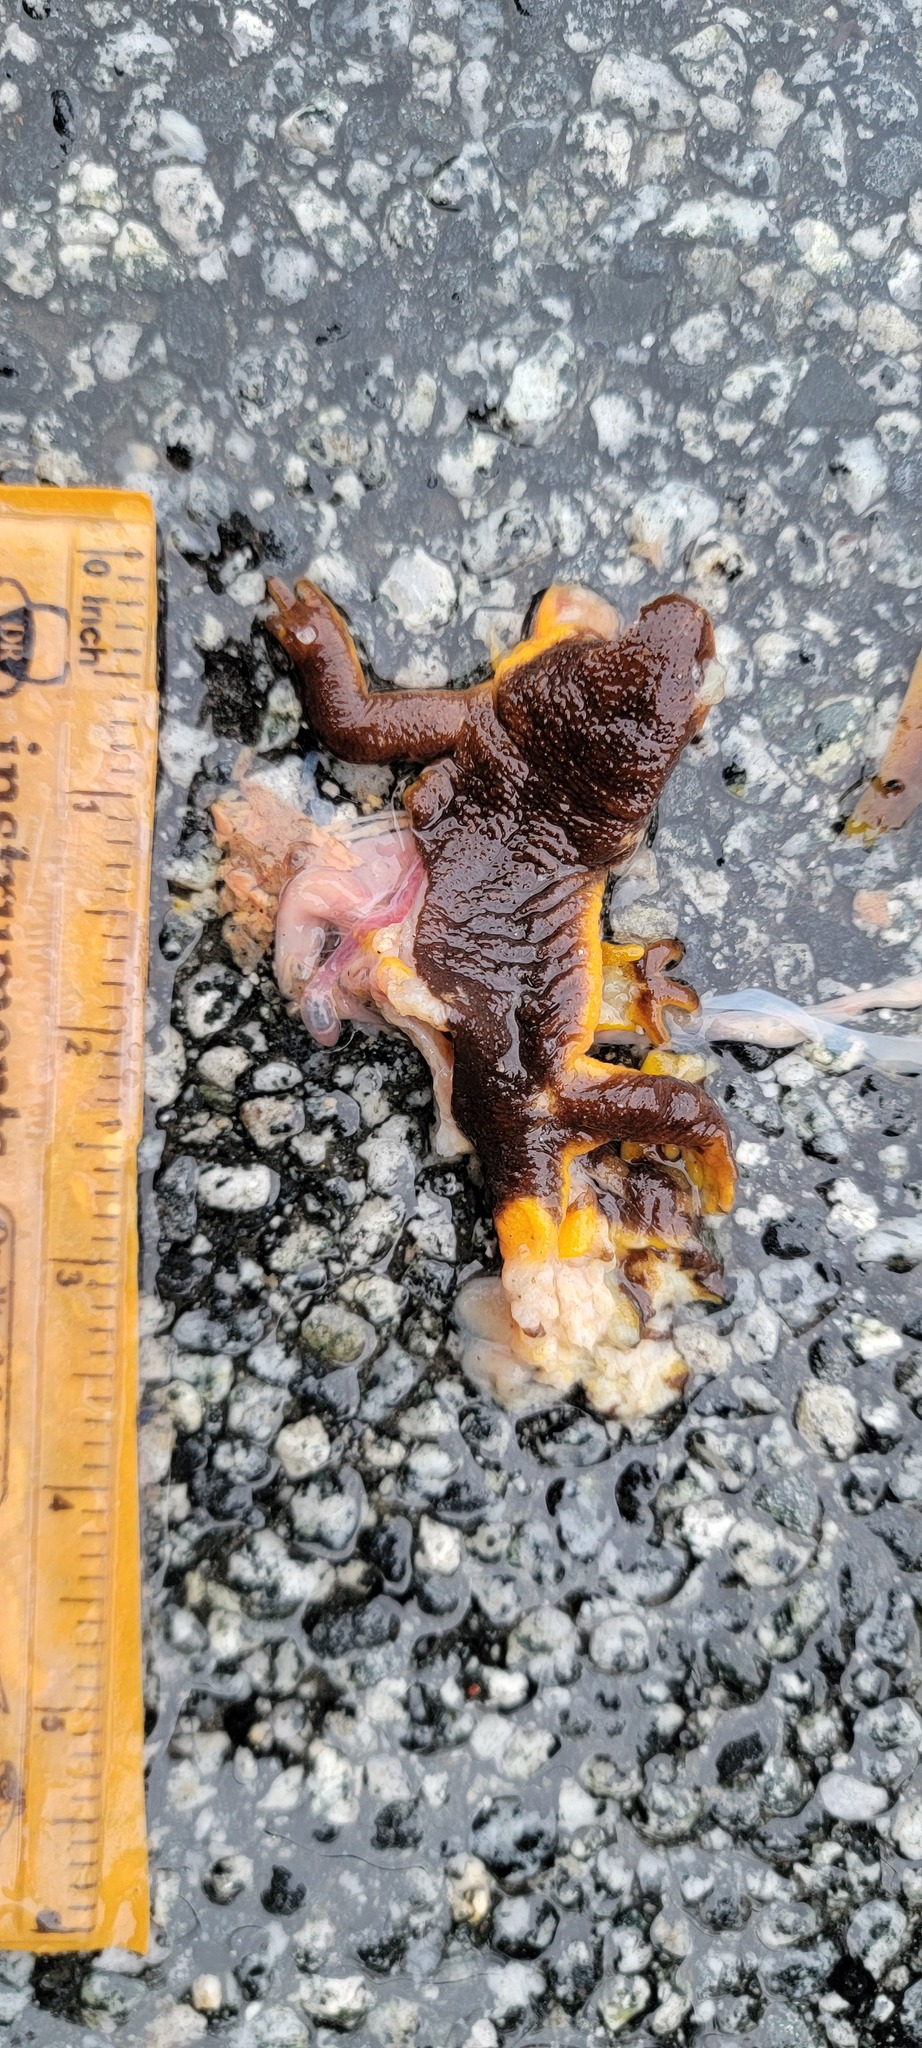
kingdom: Animalia
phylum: Chordata
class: Amphibia
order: Caudata
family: Salamandridae
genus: Taricha
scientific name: Taricha
